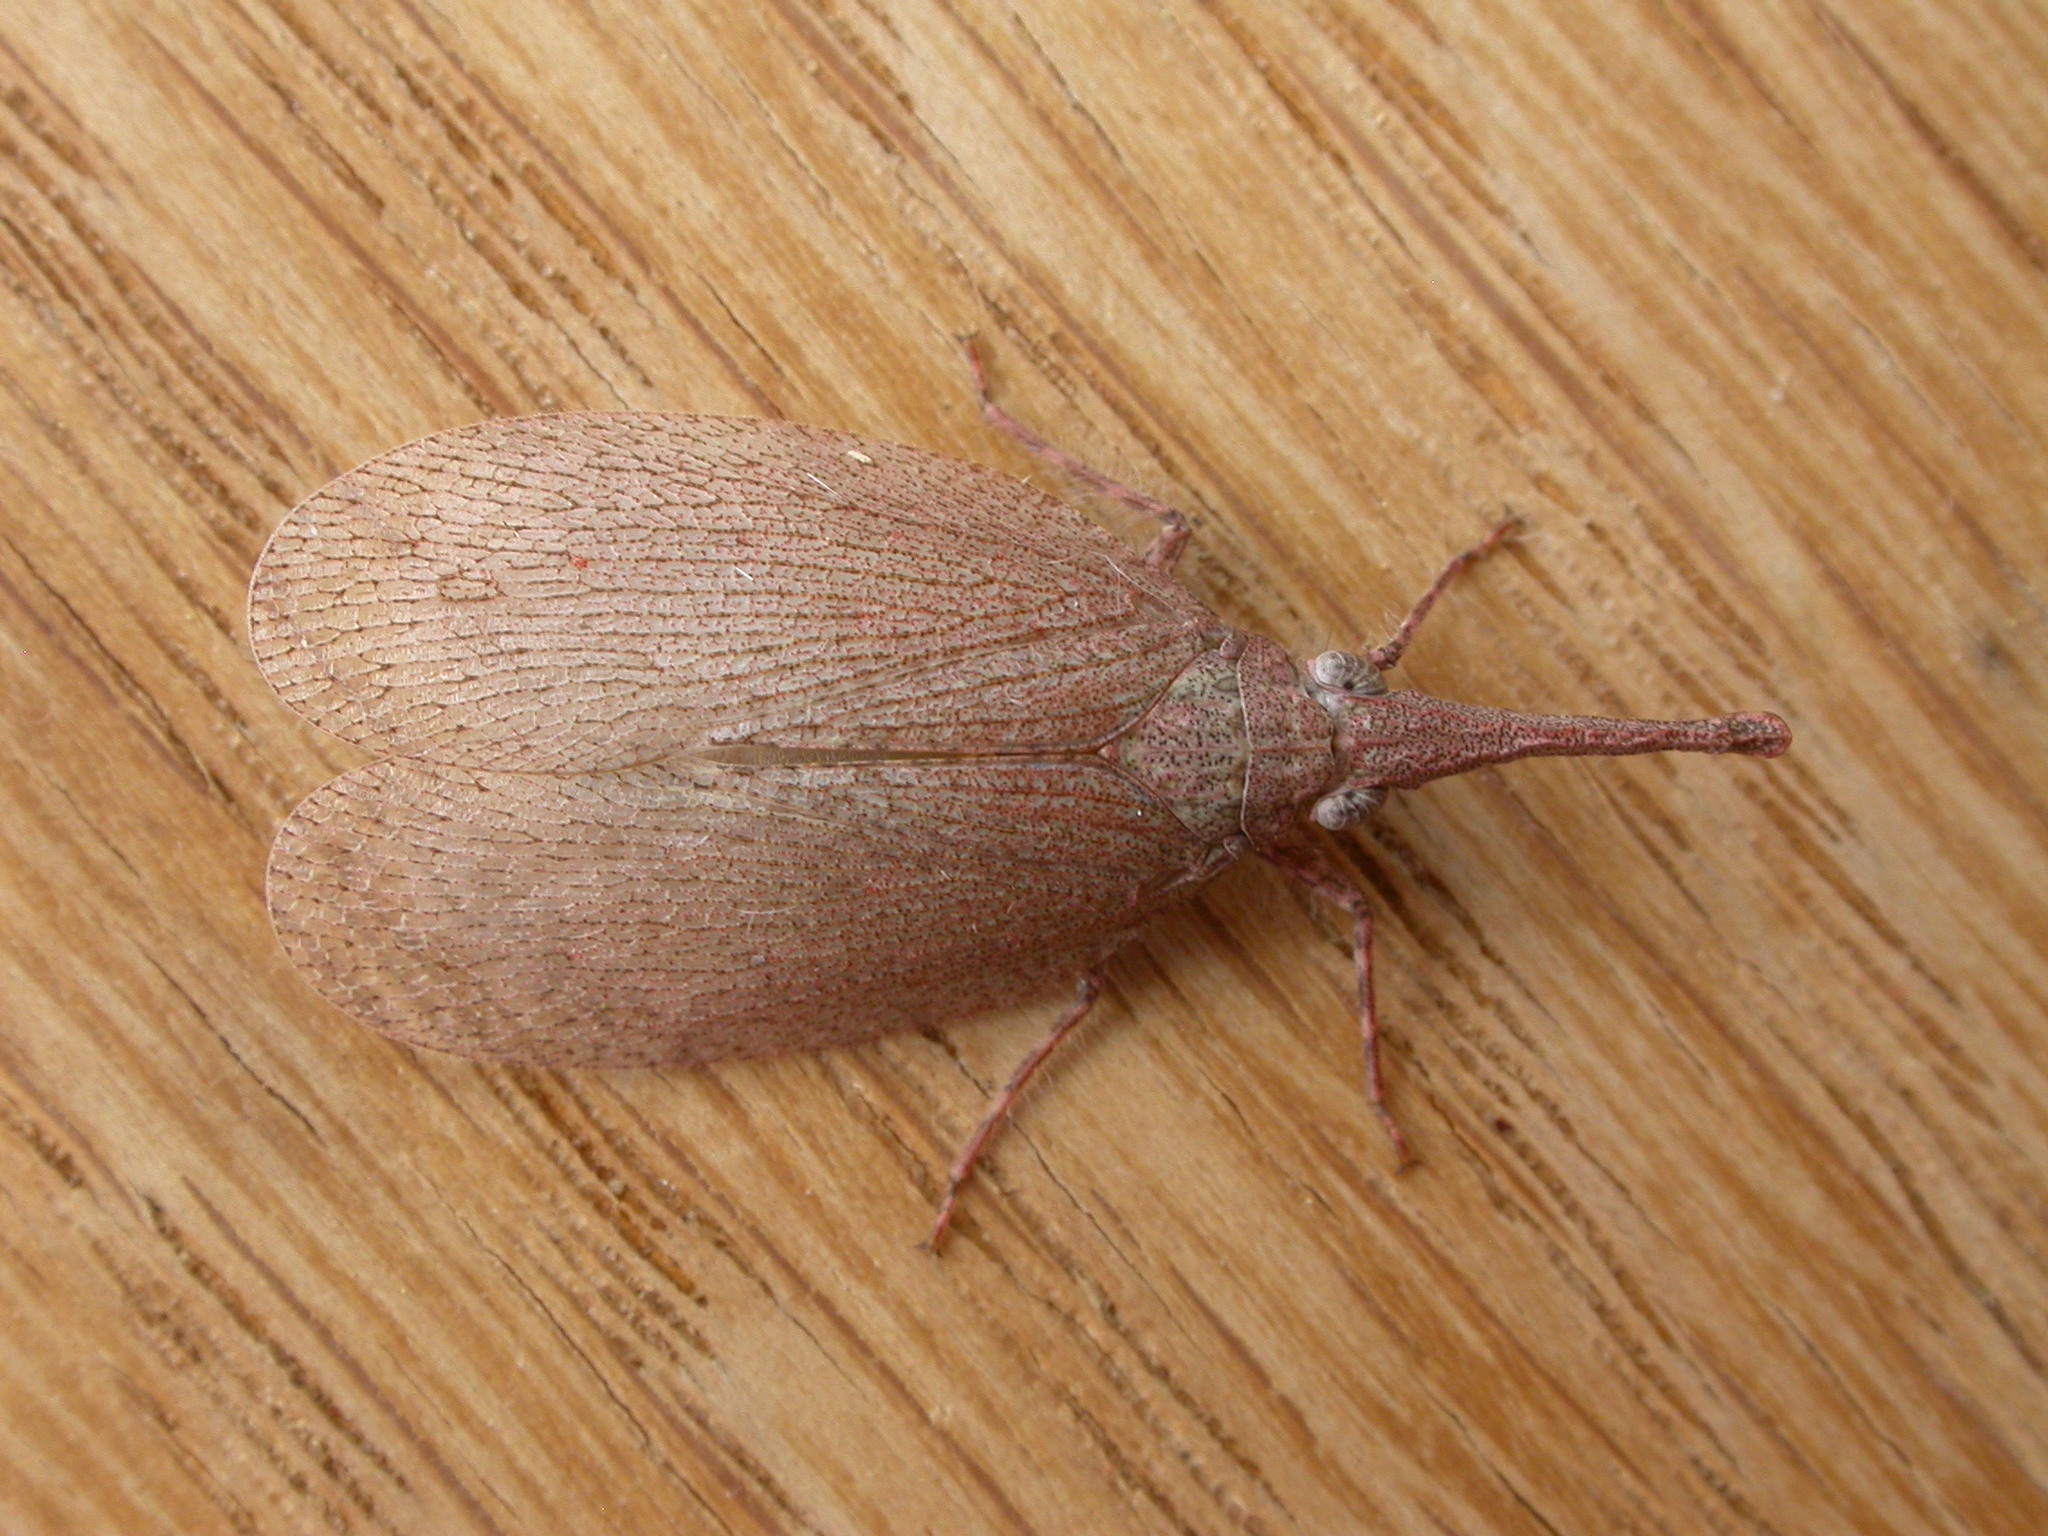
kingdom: Animalia
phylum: Arthropoda
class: Insecta
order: Hemiptera
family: Fulgoridae
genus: Rentinus
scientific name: Rentinus dilatatus
